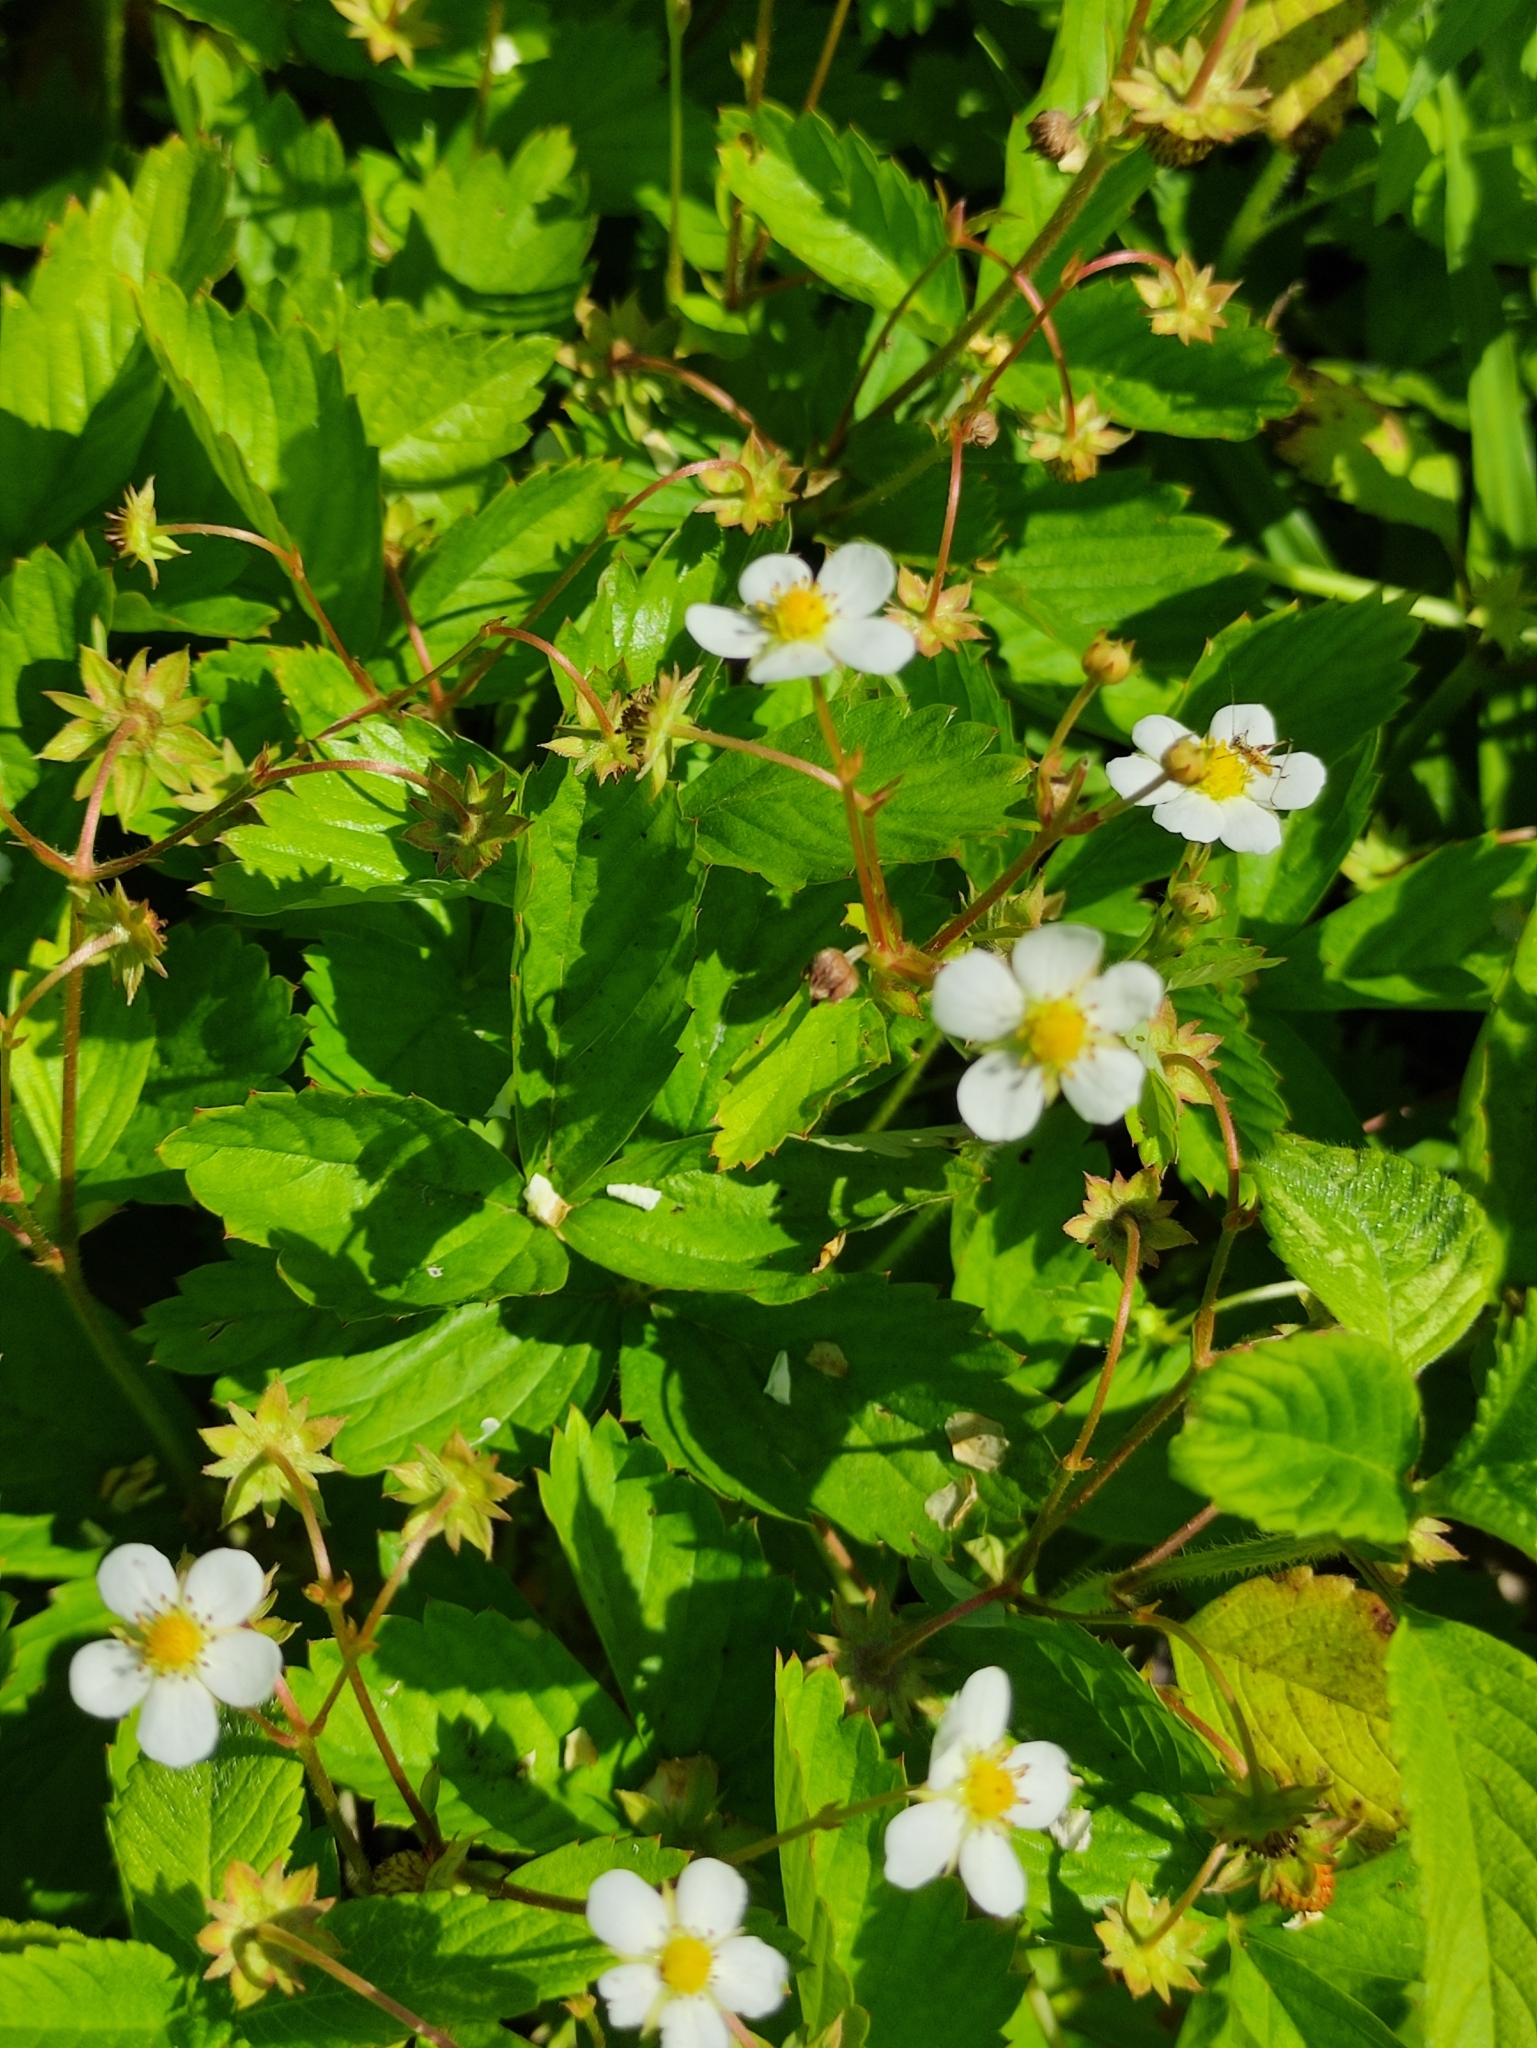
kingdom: Plantae
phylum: Tracheophyta
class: Magnoliopsida
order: Rosales
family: Rosaceae
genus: Fragaria
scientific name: Fragaria vesca
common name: Wild strawberry
